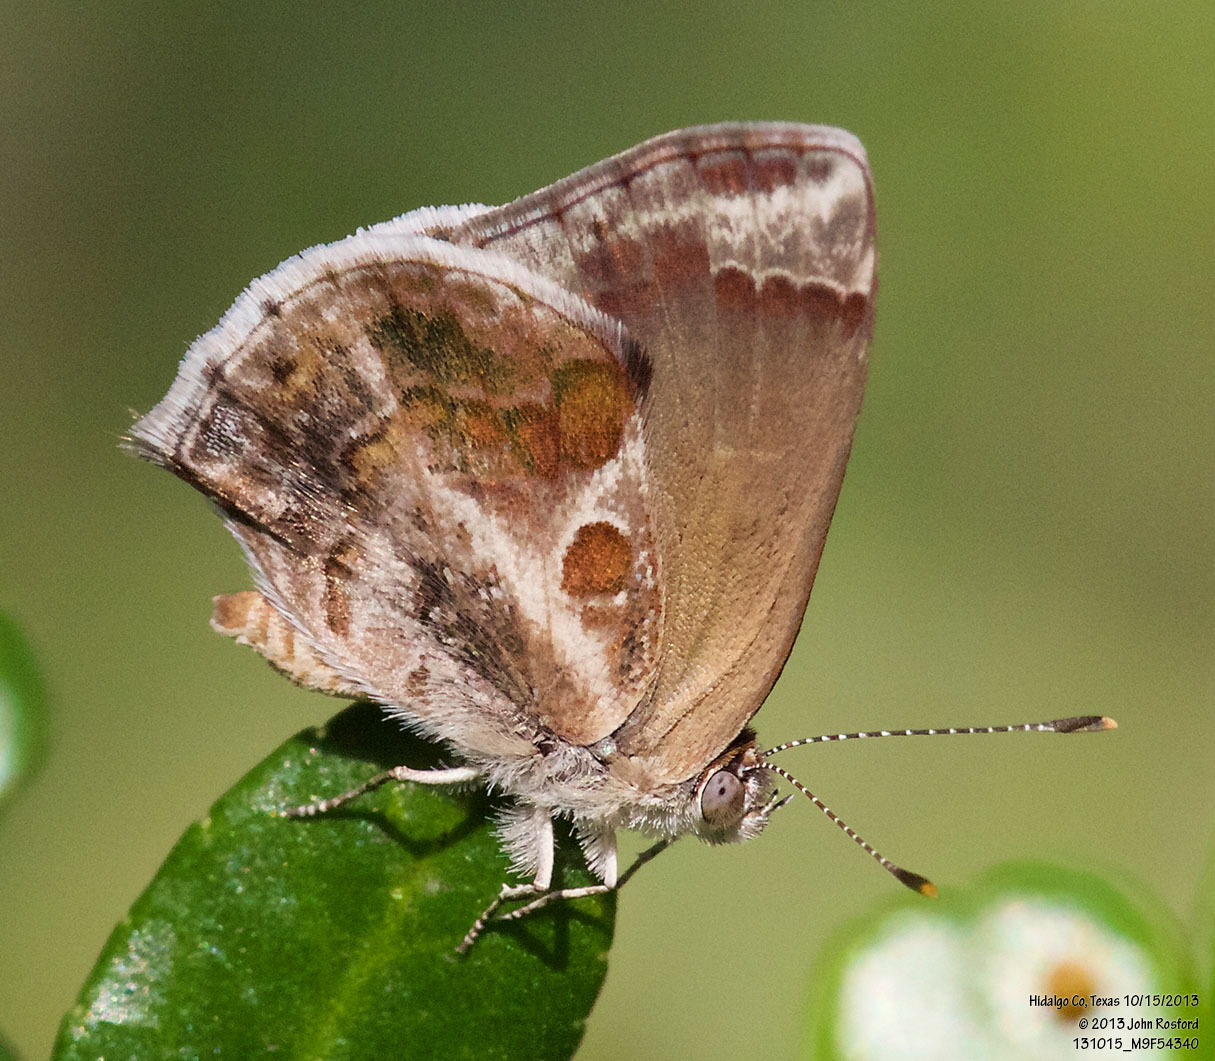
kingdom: Animalia
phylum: Arthropoda
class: Insecta
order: Lepidoptera
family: Lycaenidae
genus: Strymon
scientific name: Strymon bazochii
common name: Lantana scrub-hairstreak
